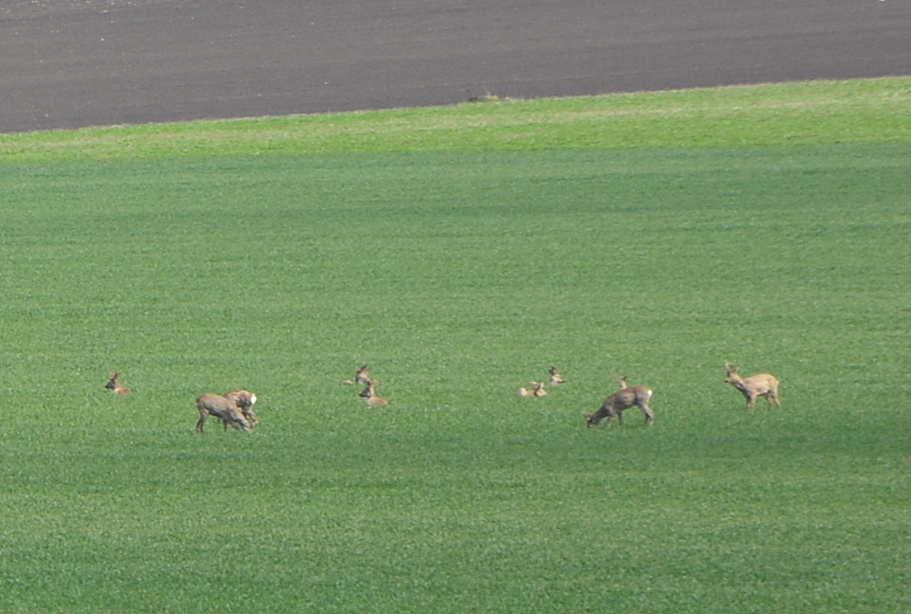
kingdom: Animalia
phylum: Chordata
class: Mammalia
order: Artiodactyla
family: Cervidae
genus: Capreolus
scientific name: Capreolus capreolus
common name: Western roe deer
